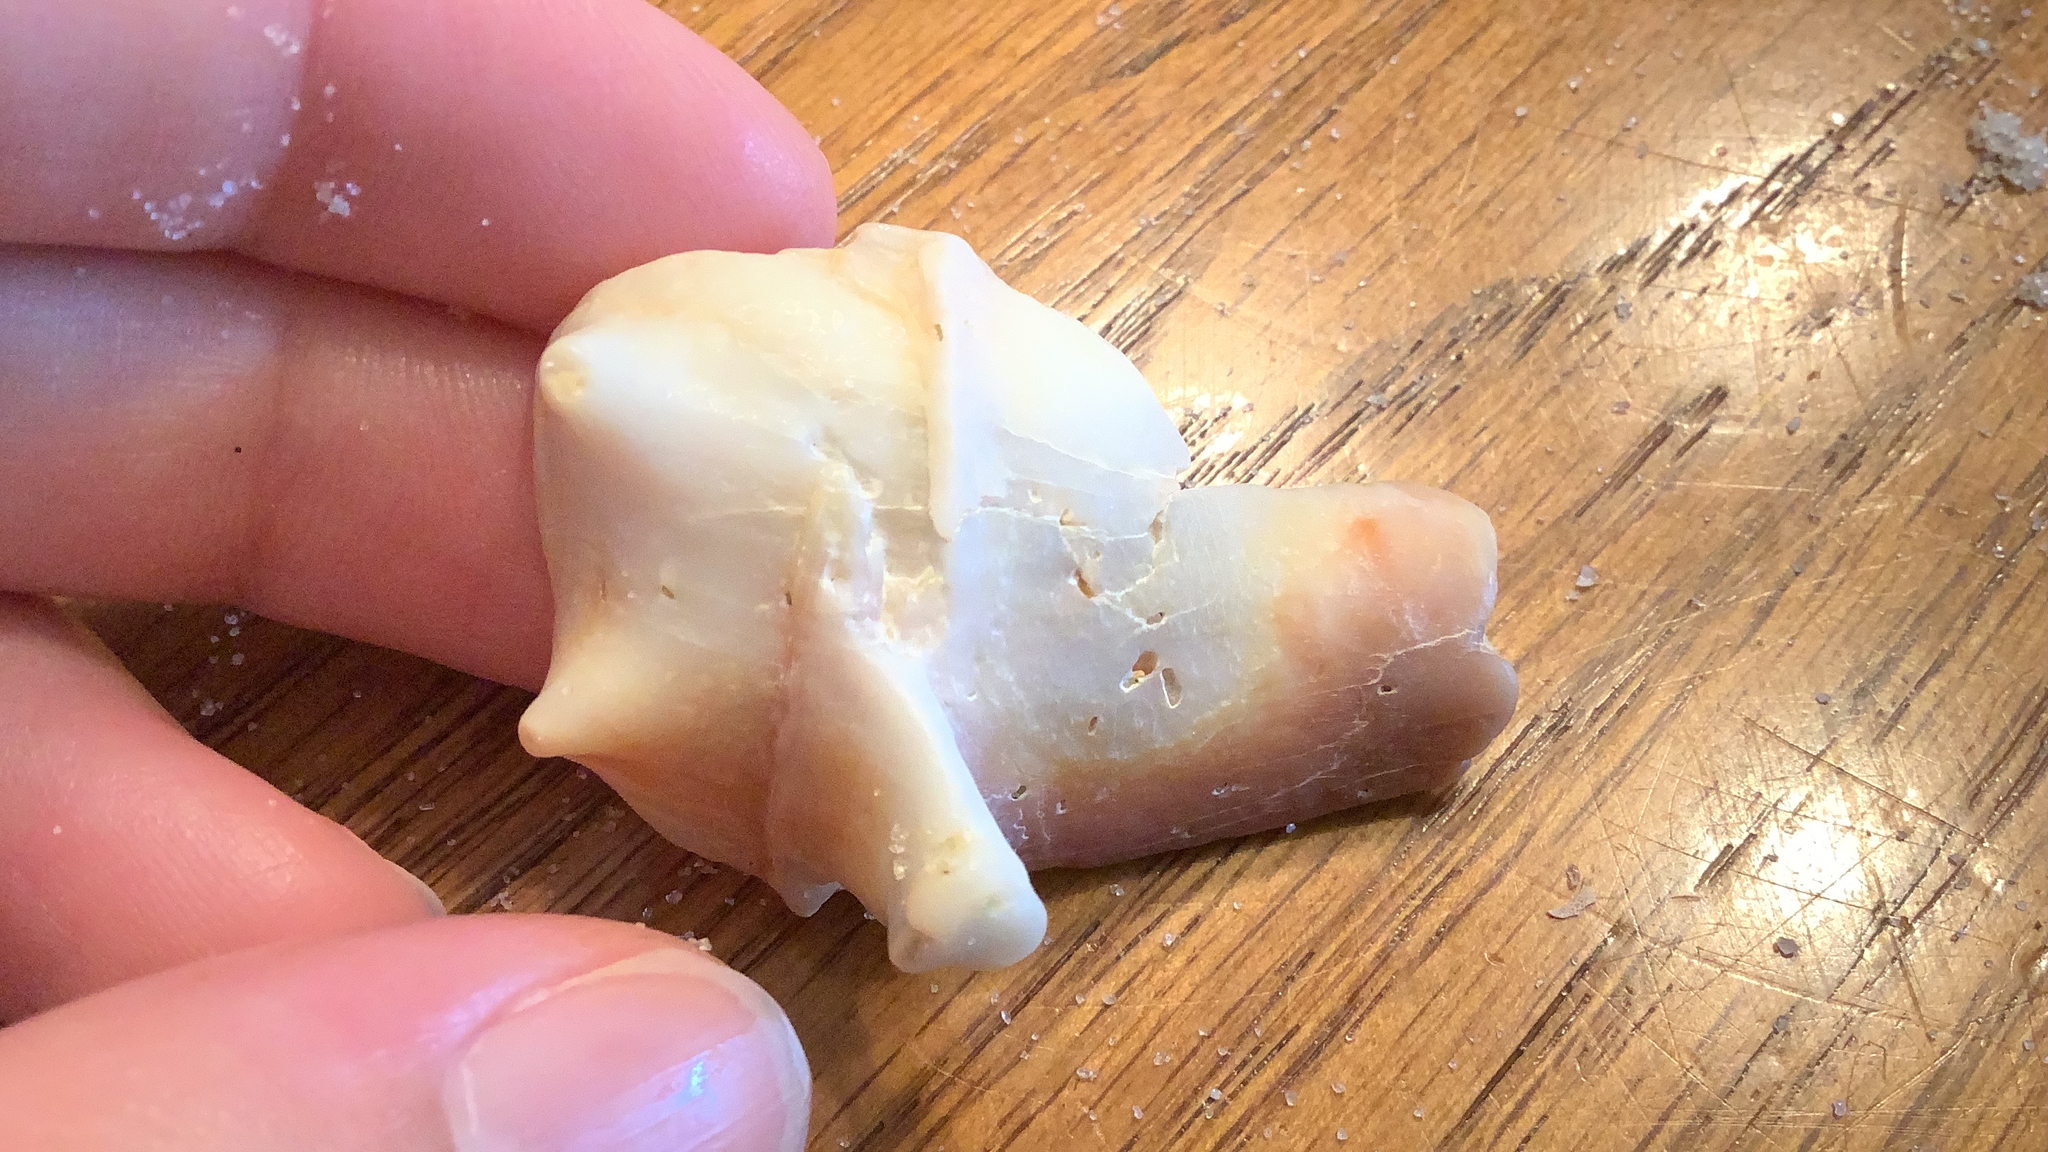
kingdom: Animalia
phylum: Mollusca
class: Gastropoda
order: Littorinimorpha
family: Strombidae
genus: Strombus
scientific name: Strombus alatus
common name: Florida fighting conch
